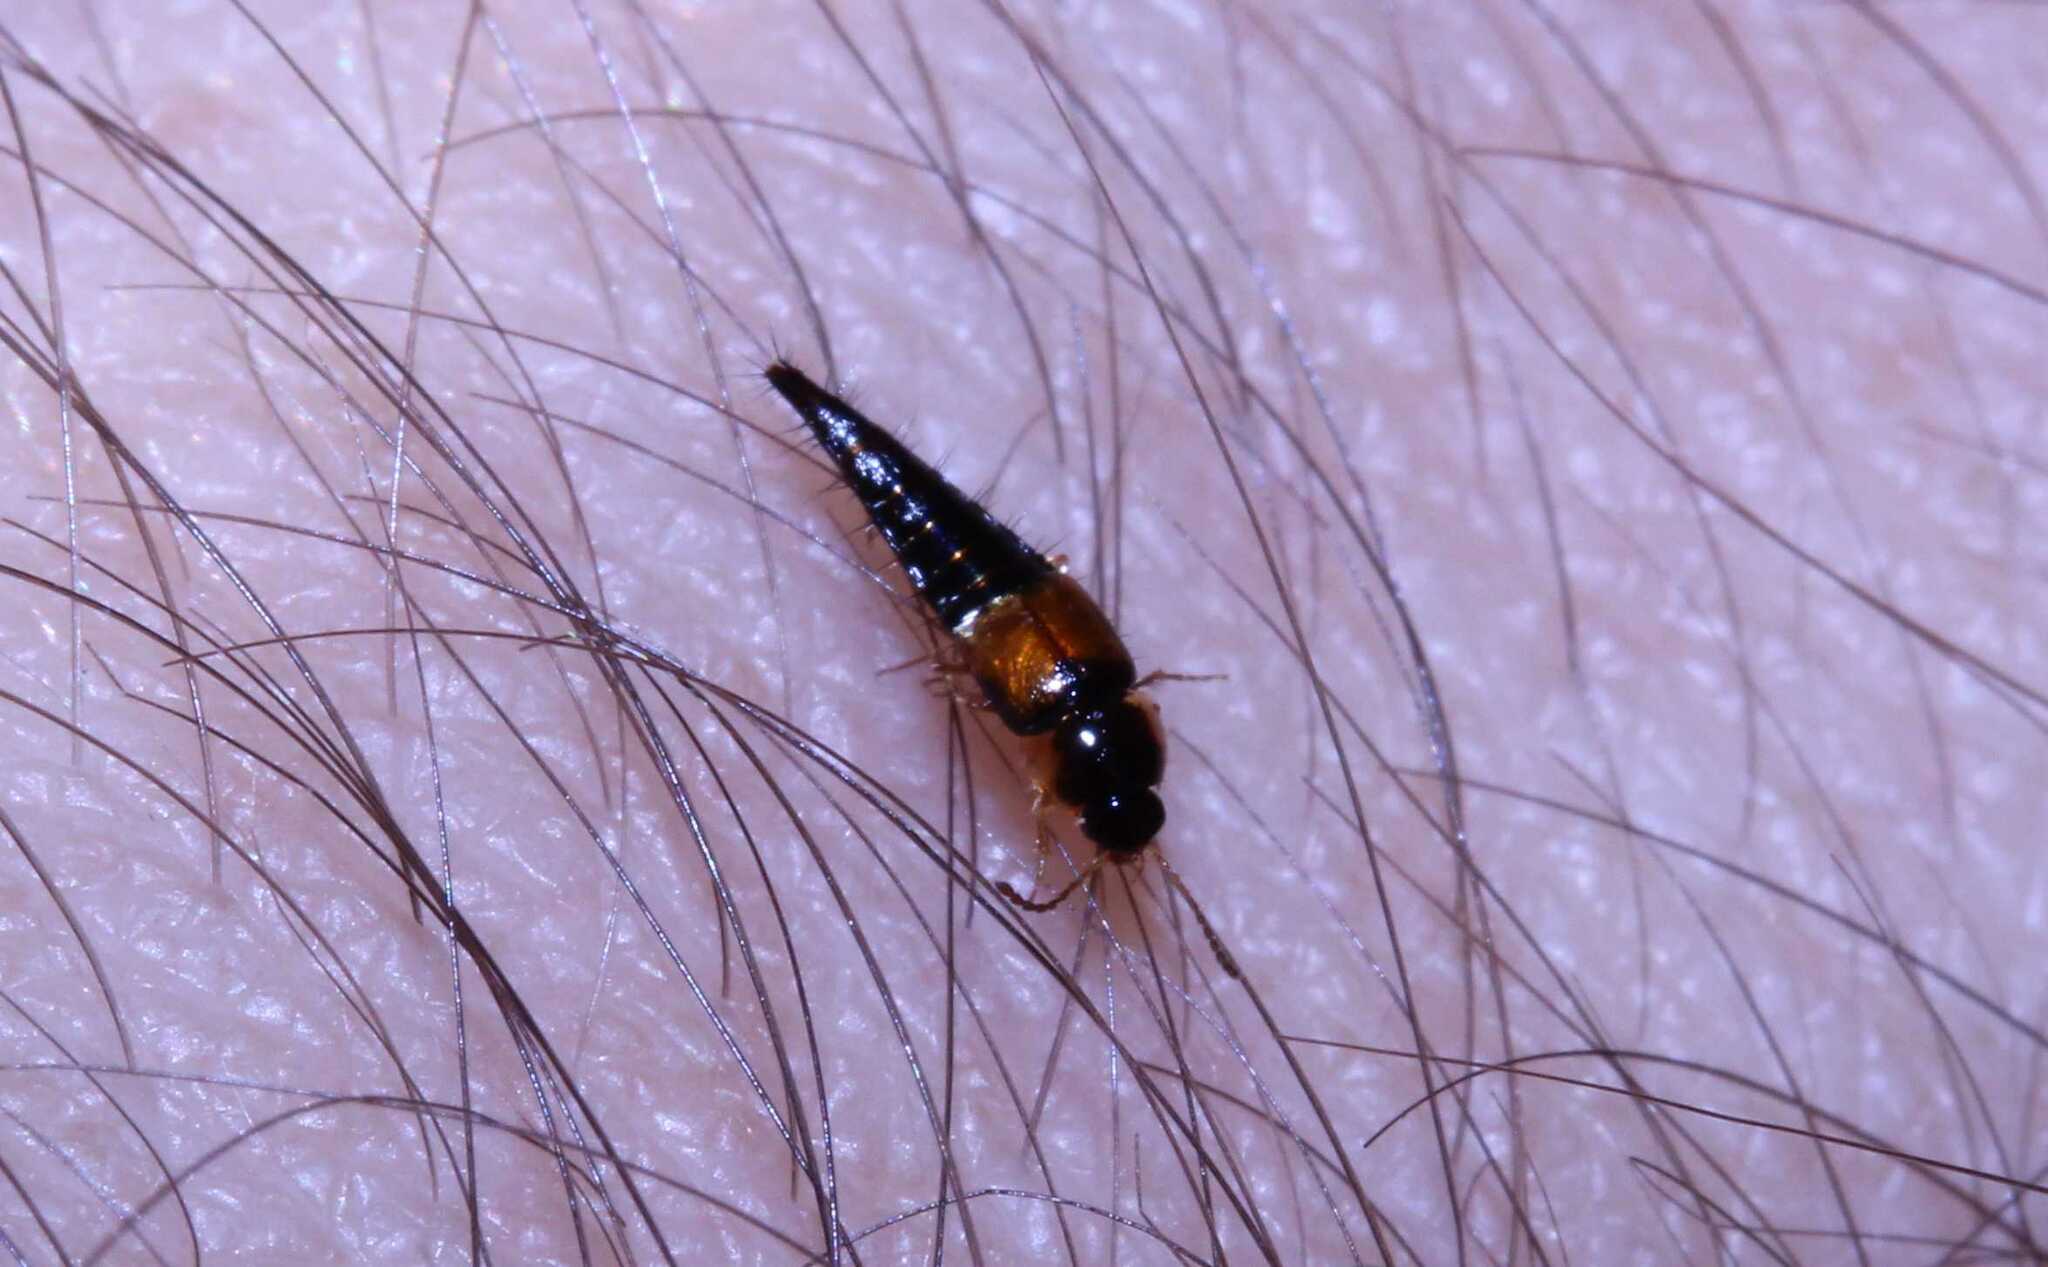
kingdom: Animalia
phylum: Arthropoda
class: Insecta
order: Coleoptera
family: Staphylinidae
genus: Tachyporus
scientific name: Tachyporus hypnorum
